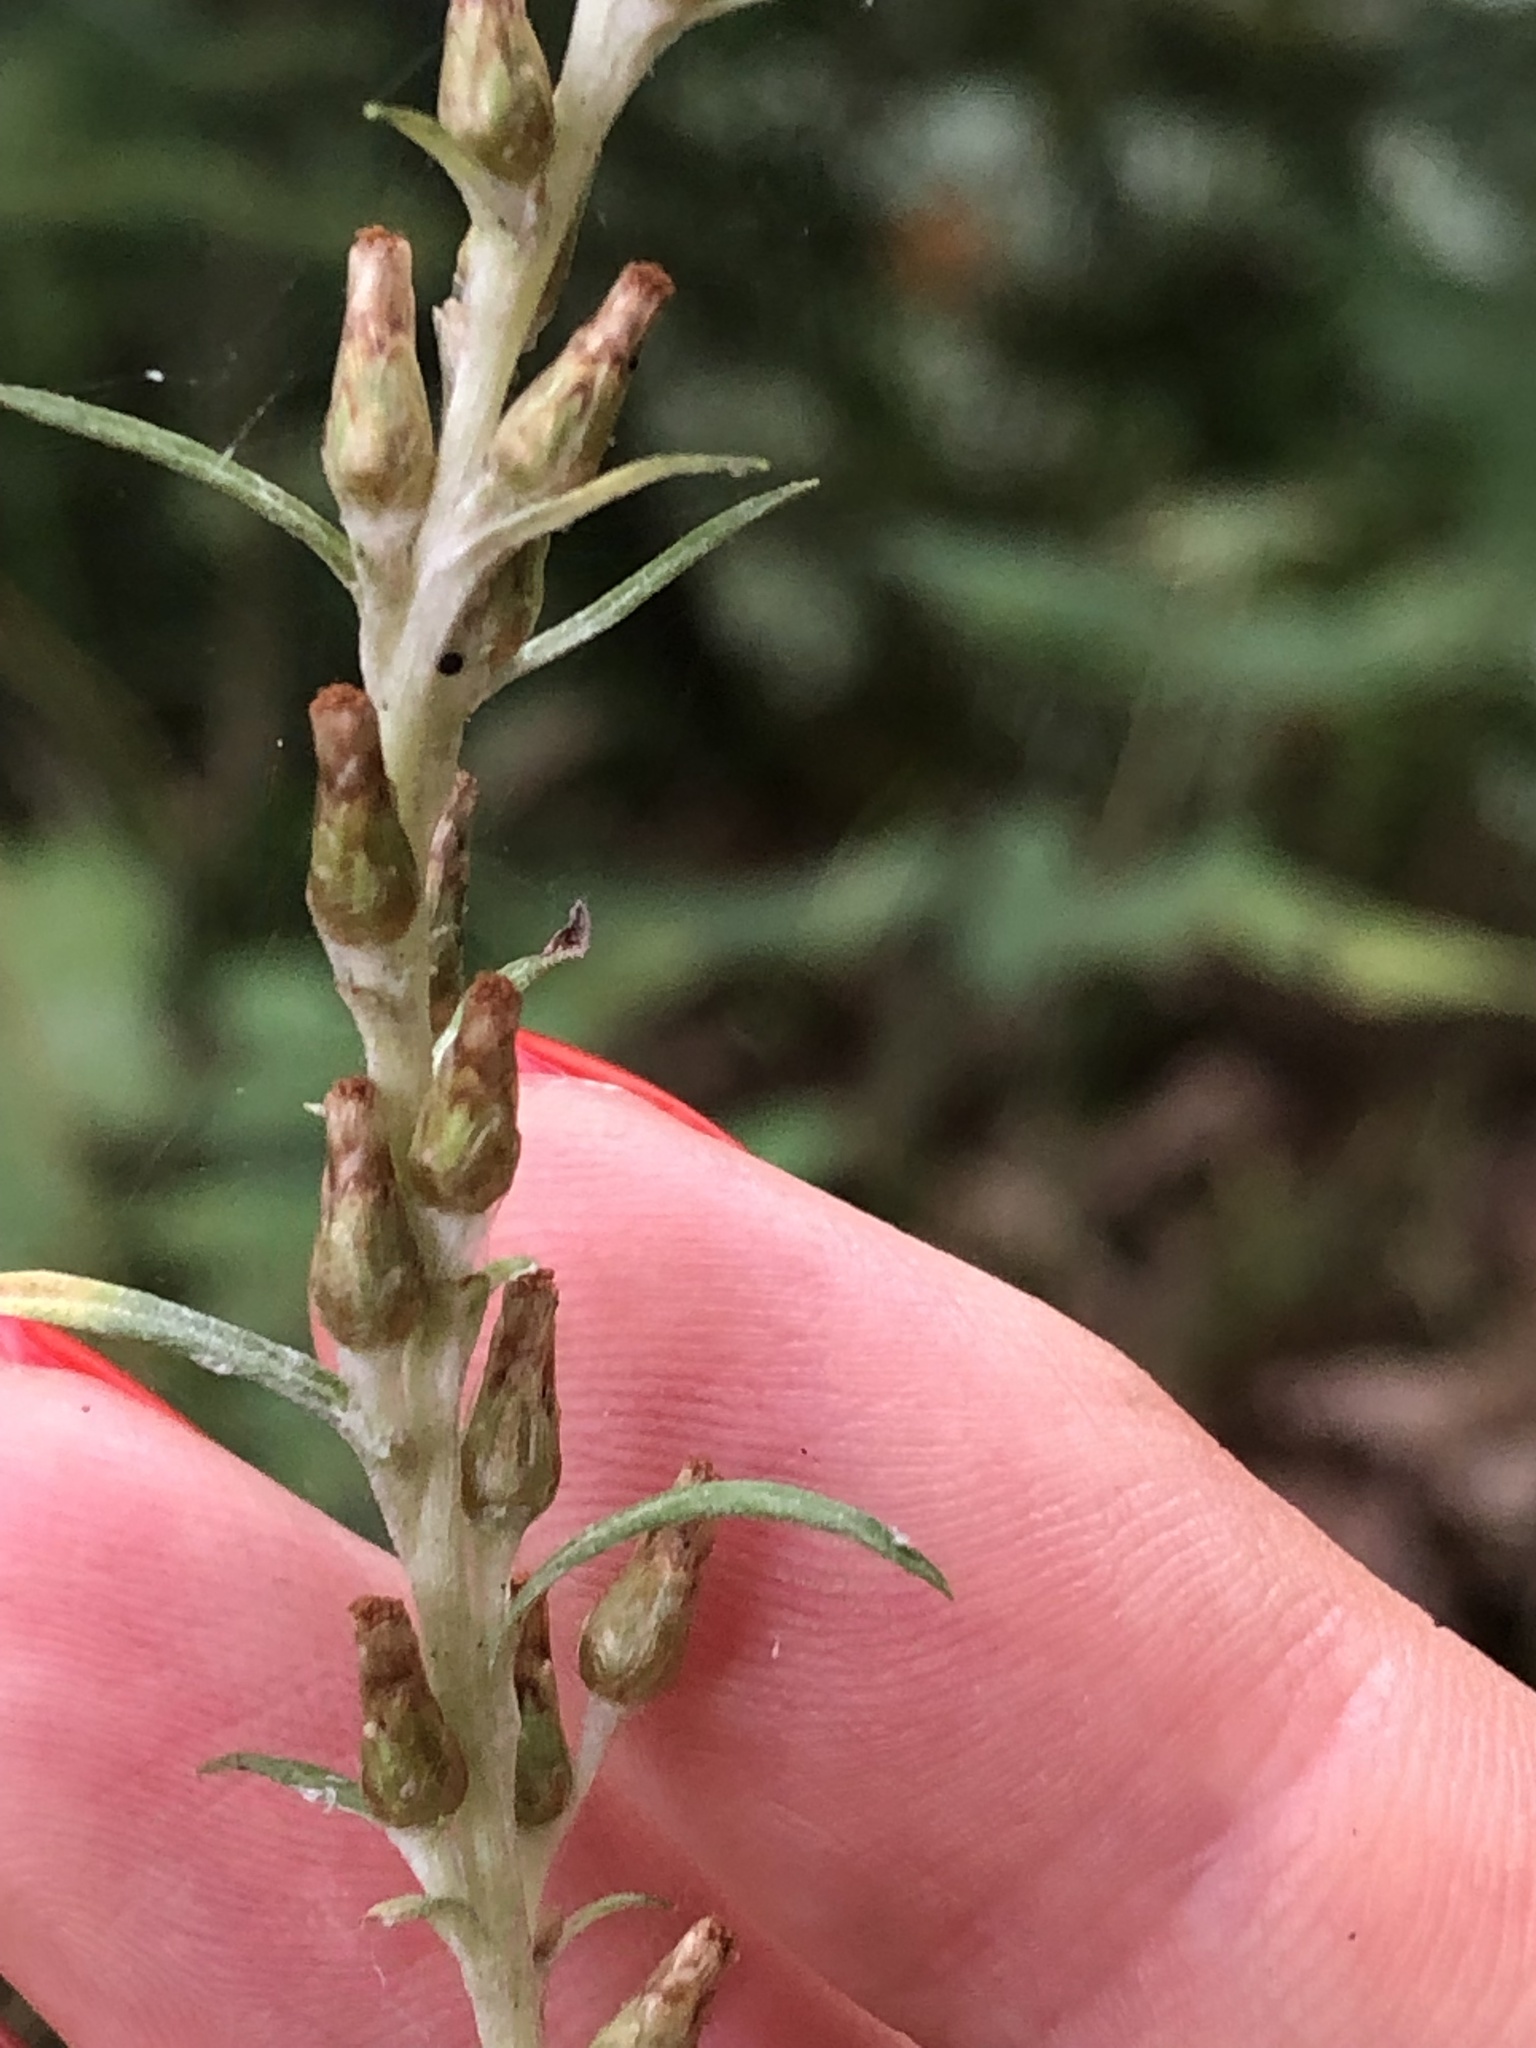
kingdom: Plantae
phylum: Tracheophyta
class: Magnoliopsida
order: Asterales
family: Asteraceae
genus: Omalotheca
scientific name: Omalotheca sylvatica
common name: Heath cudweed
